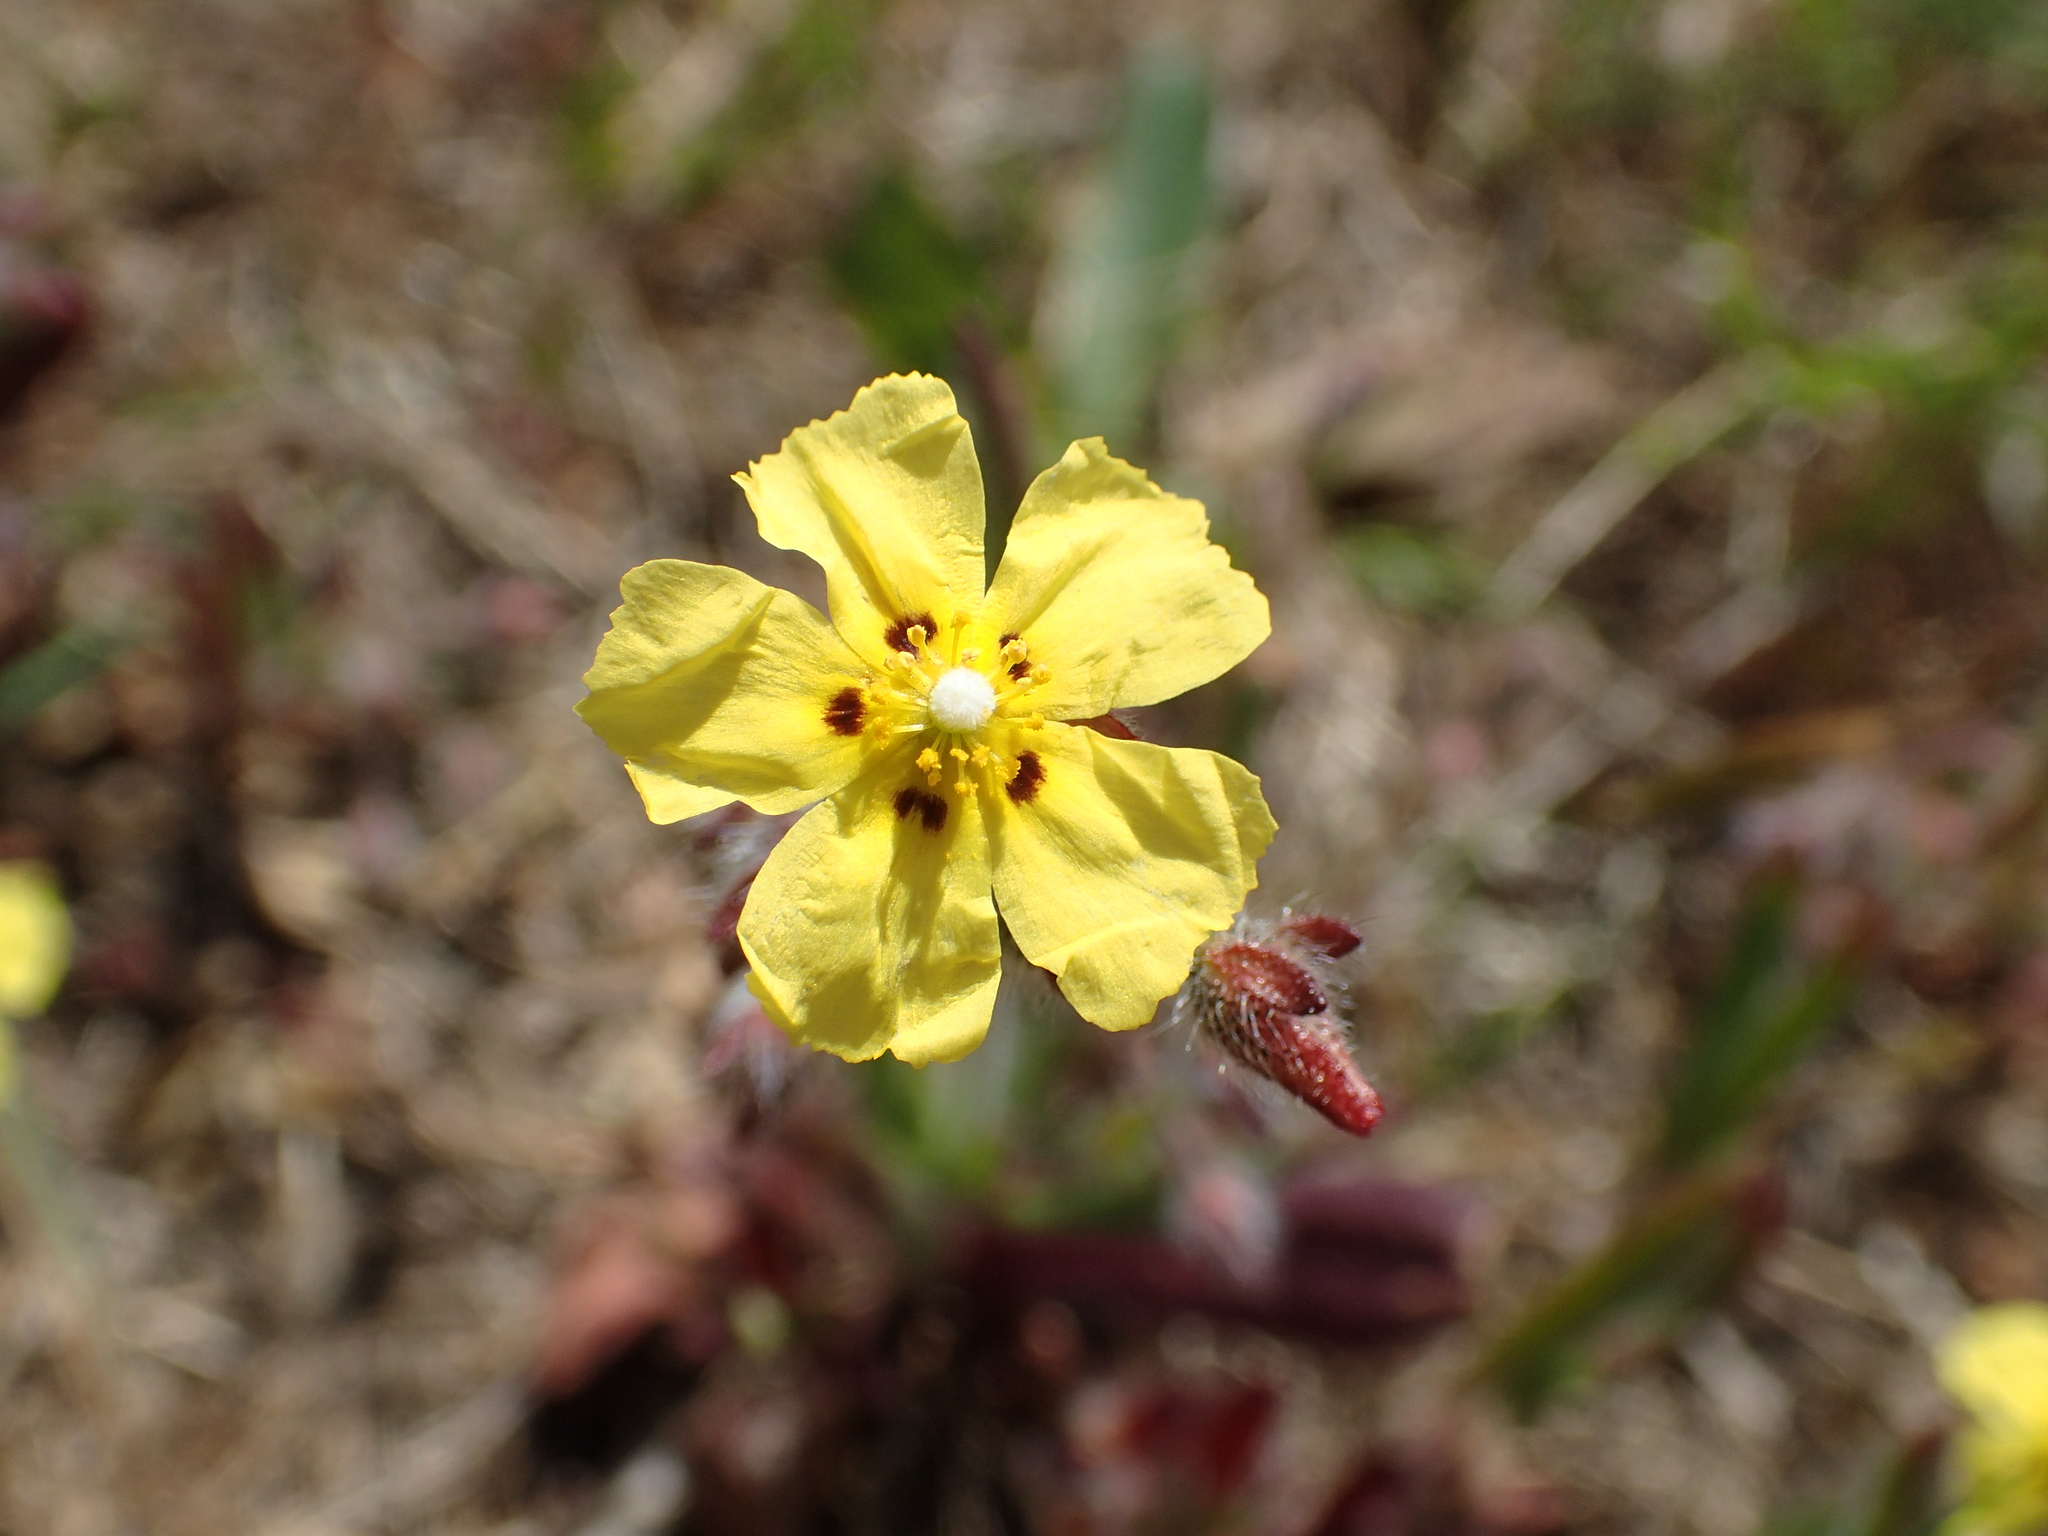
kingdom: Plantae
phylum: Tracheophyta
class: Magnoliopsida
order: Malvales
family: Cistaceae
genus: Tuberaria
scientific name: Tuberaria guttata
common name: Spotted rock-rose
